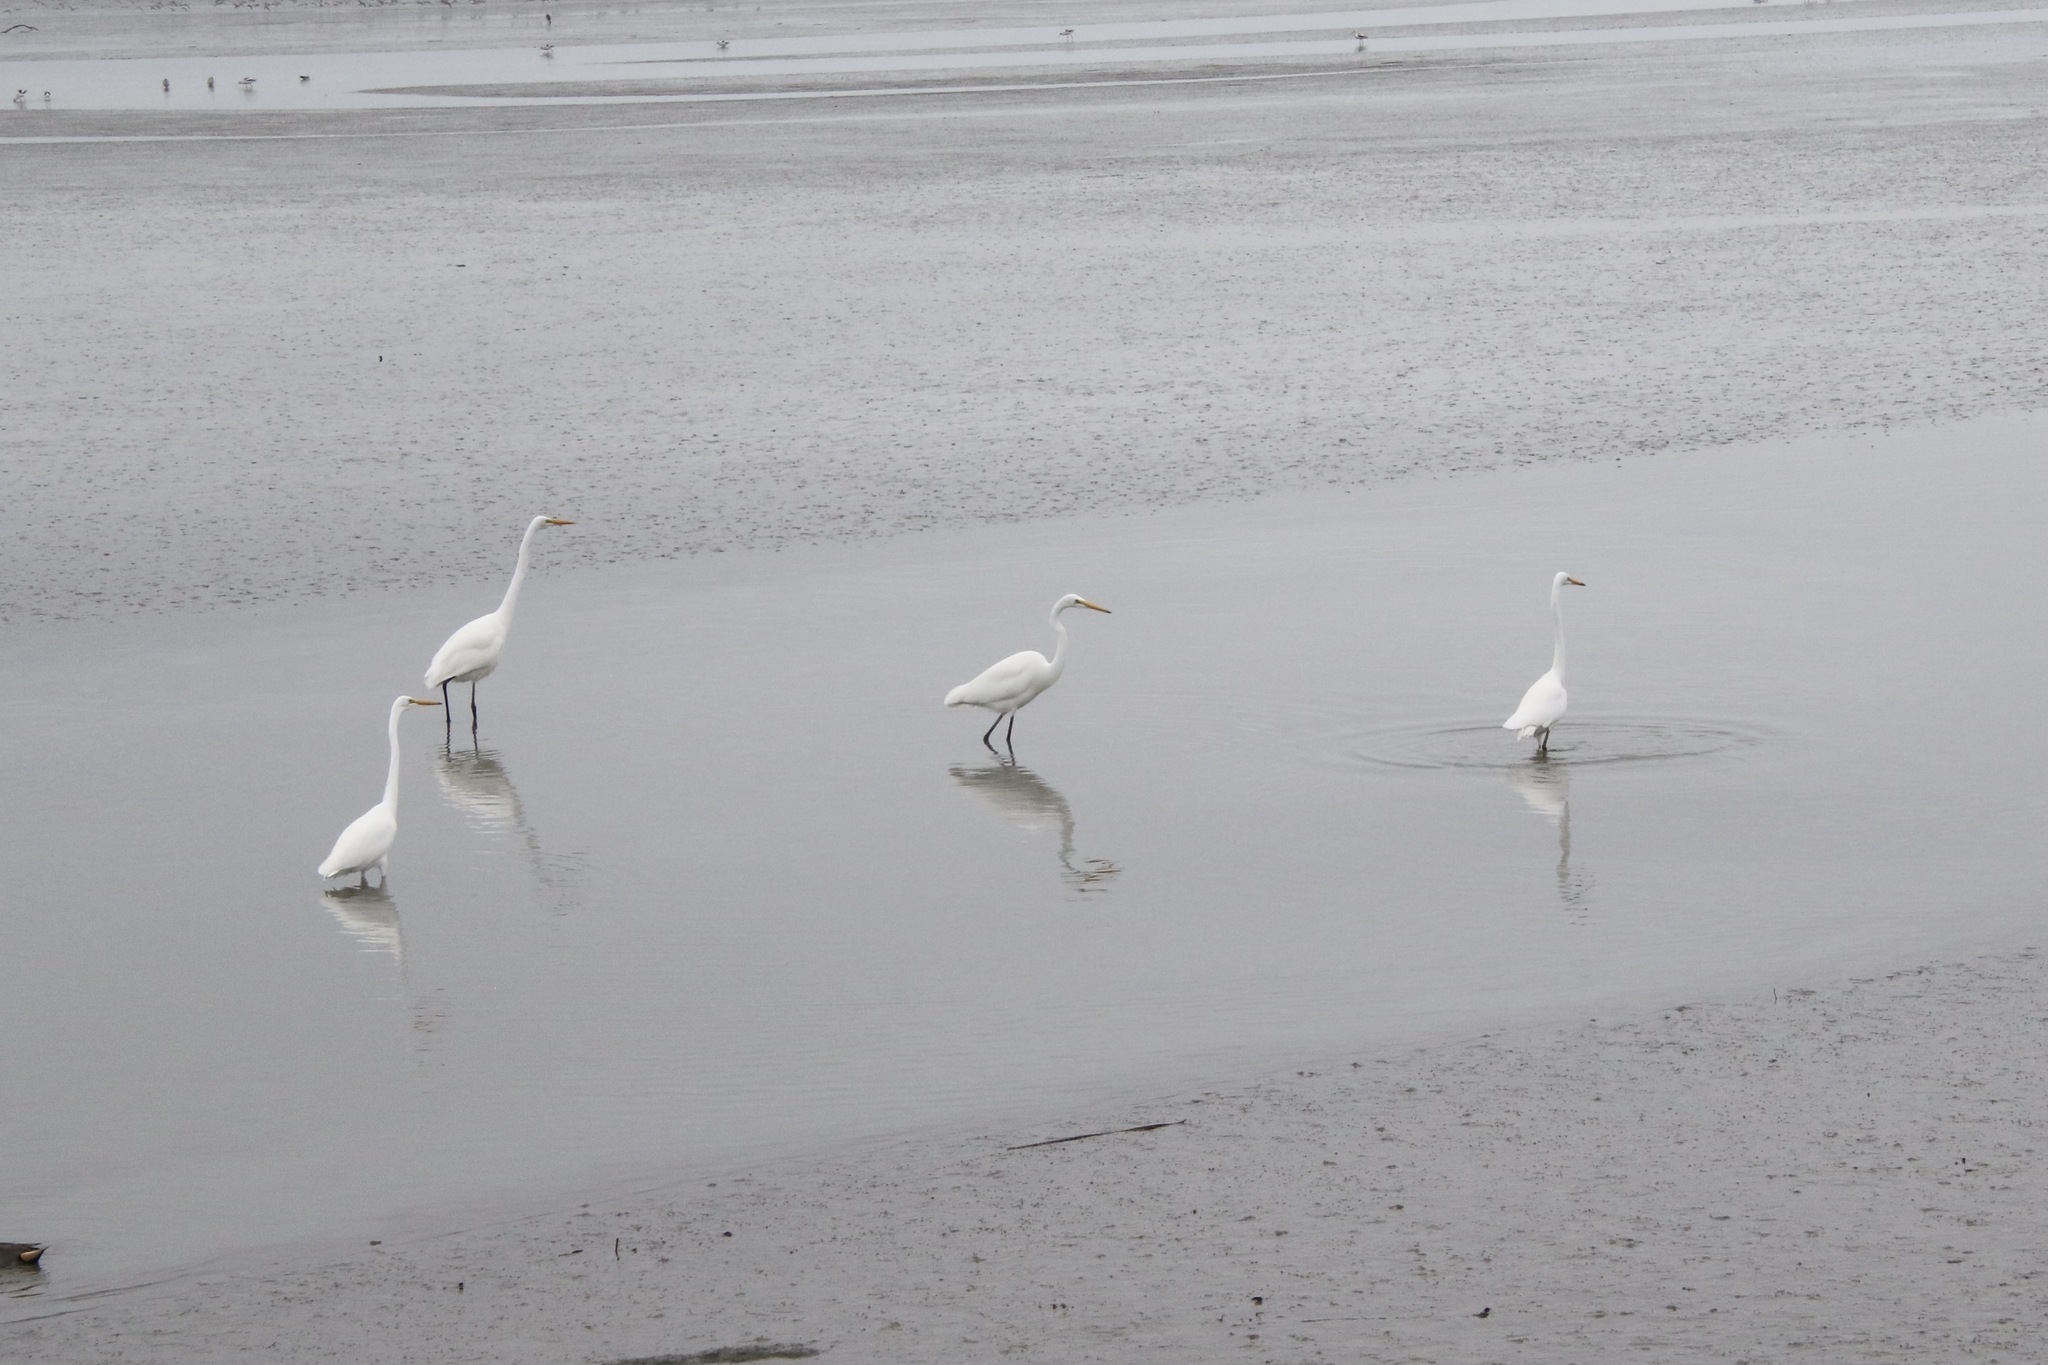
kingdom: Animalia
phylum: Chordata
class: Aves
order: Pelecaniformes
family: Ardeidae
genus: Ardea
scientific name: Ardea alba
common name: Great egret
